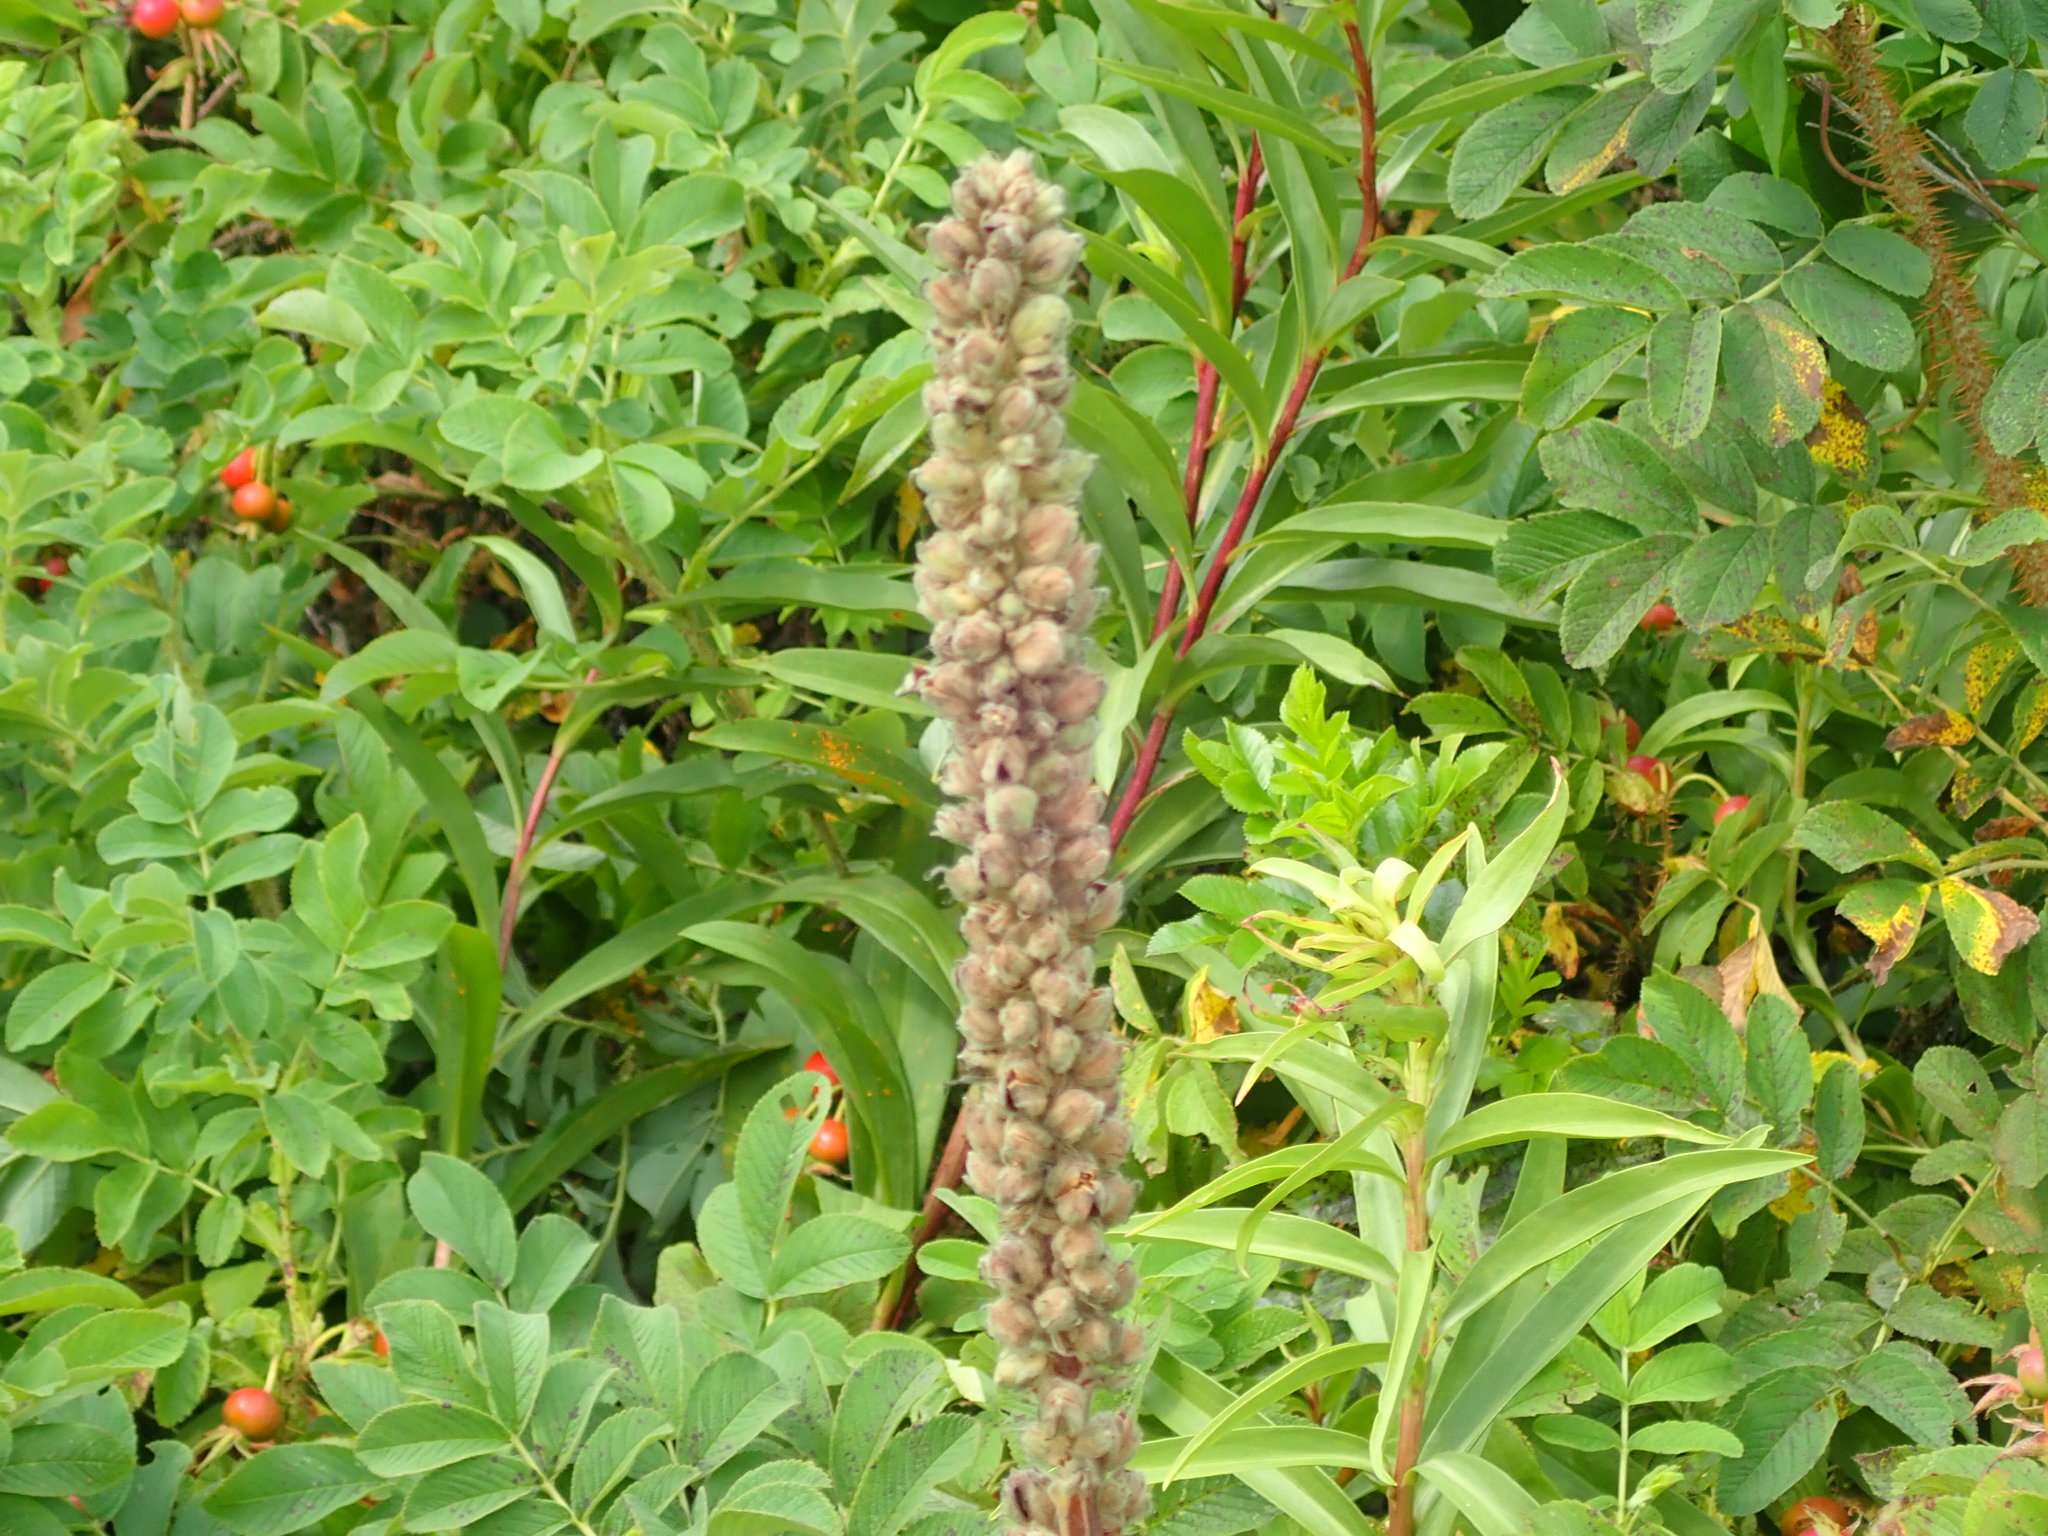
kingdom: Plantae
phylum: Tracheophyta
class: Magnoliopsida
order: Lamiales
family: Scrophulariaceae
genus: Verbascum
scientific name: Verbascum thapsus
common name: Common mullein
